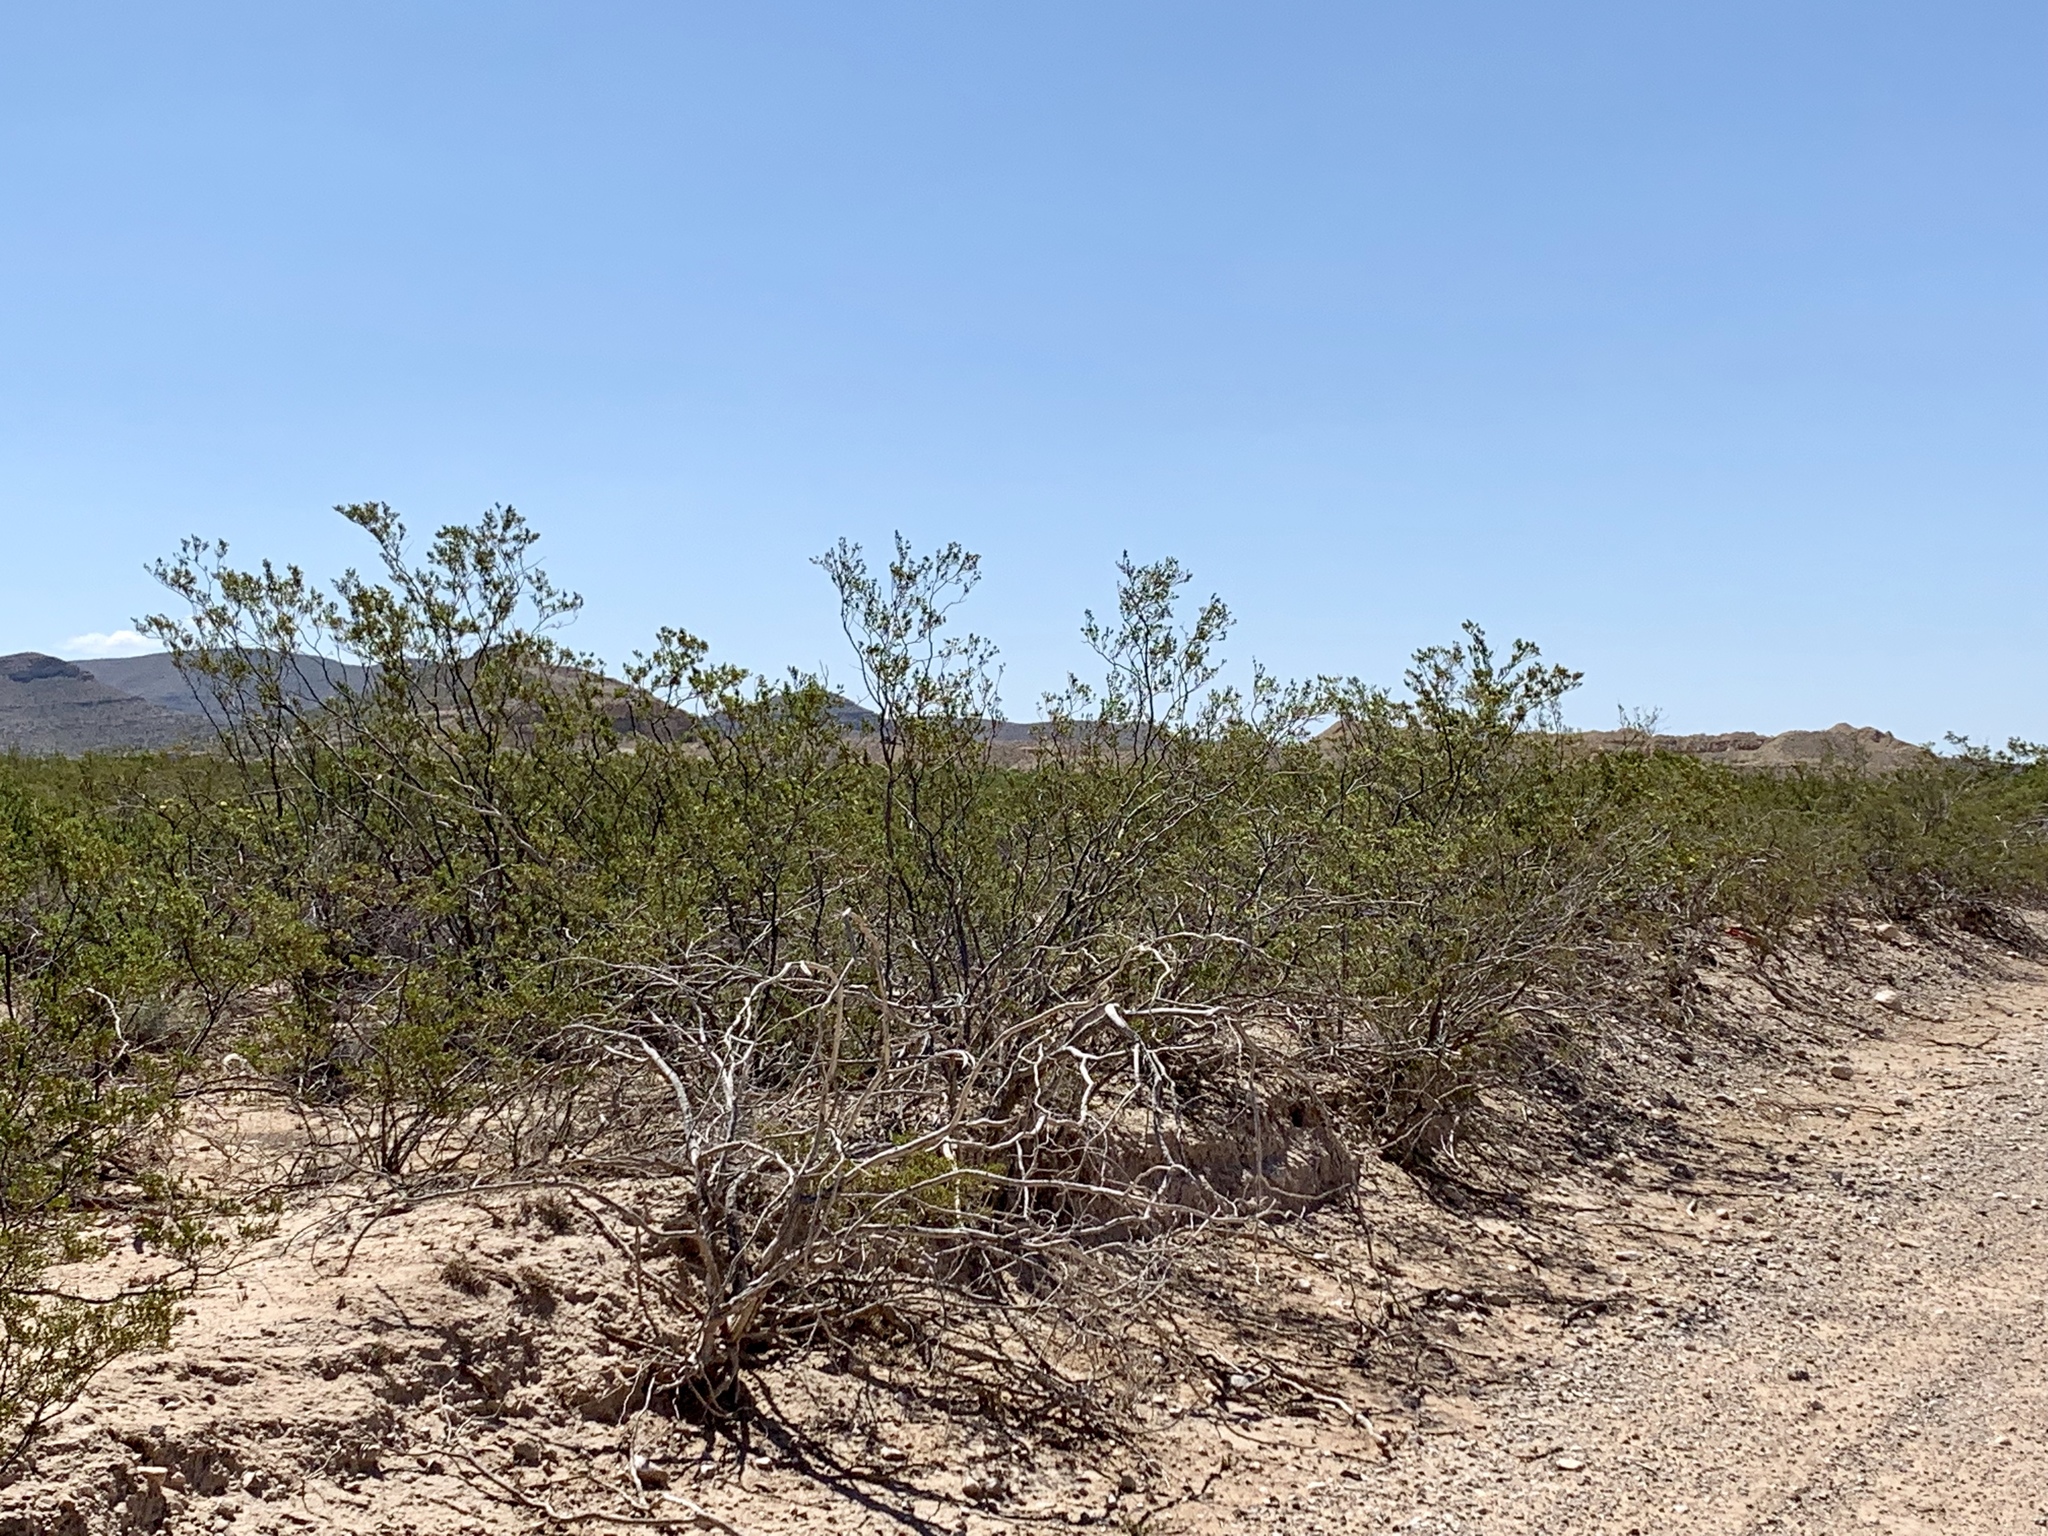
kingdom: Plantae
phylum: Tracheophyta
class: Magnoliopsida
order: Zygophyllales
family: Zygophyllaceae
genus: Larrea
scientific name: Larrea tridentata
